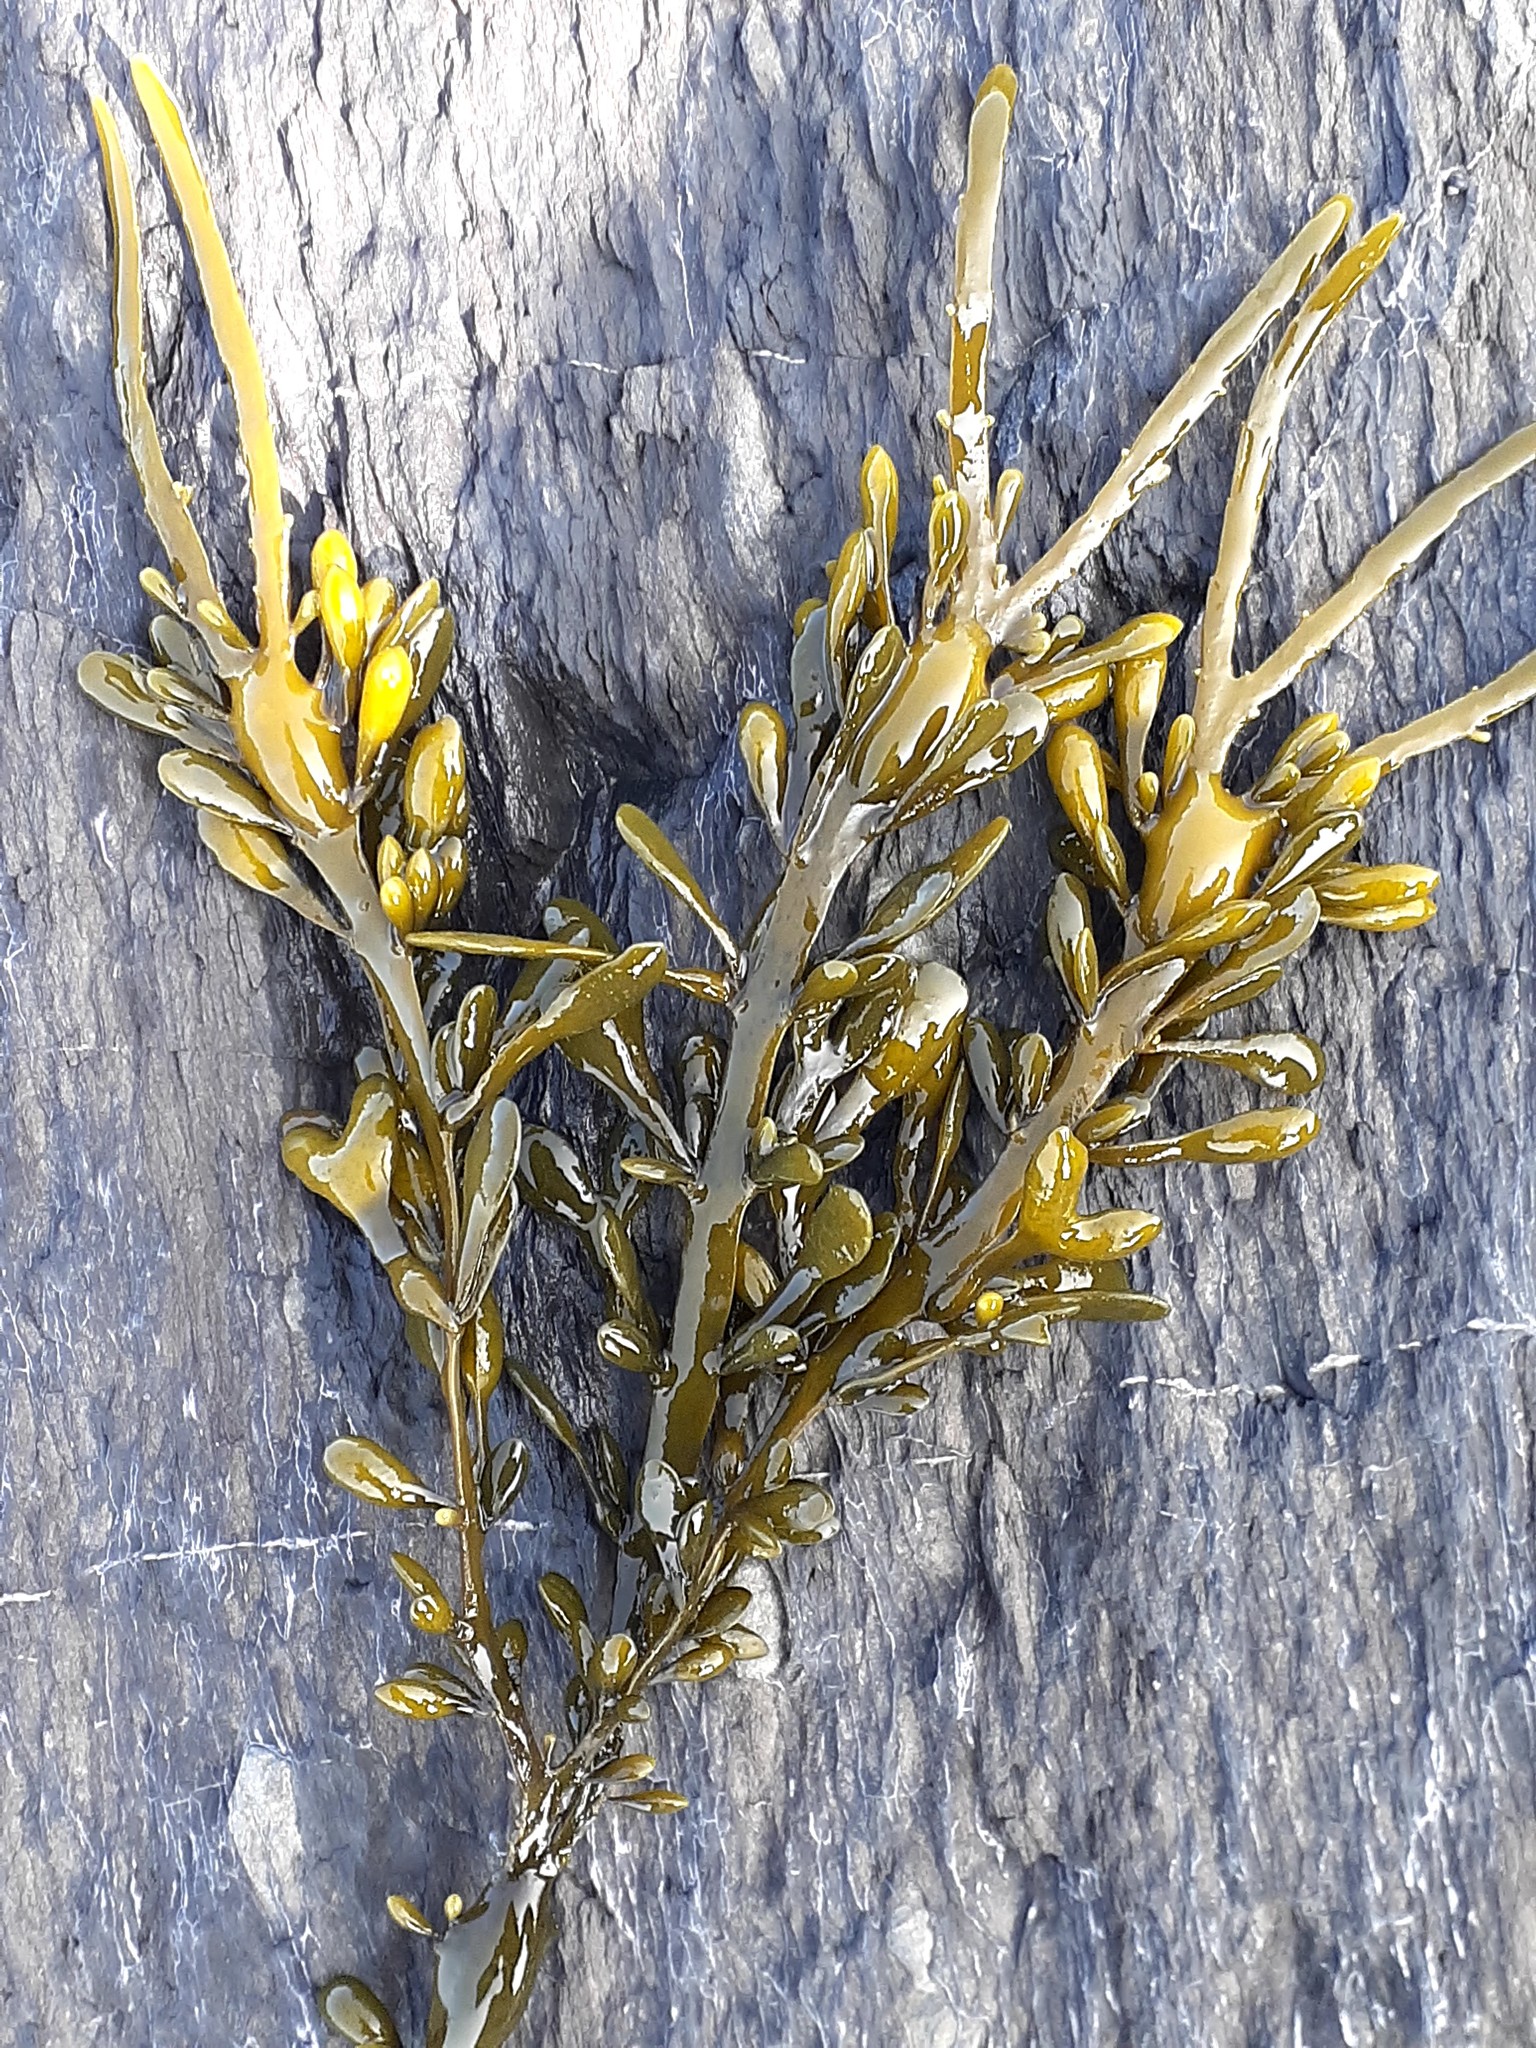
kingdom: Chromista
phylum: Ochrophyta
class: Phaeophyceae
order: Fucales
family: Fucaceae
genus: Ascophyllum
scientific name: Ascophyllum nodosum
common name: Knotted wrack
